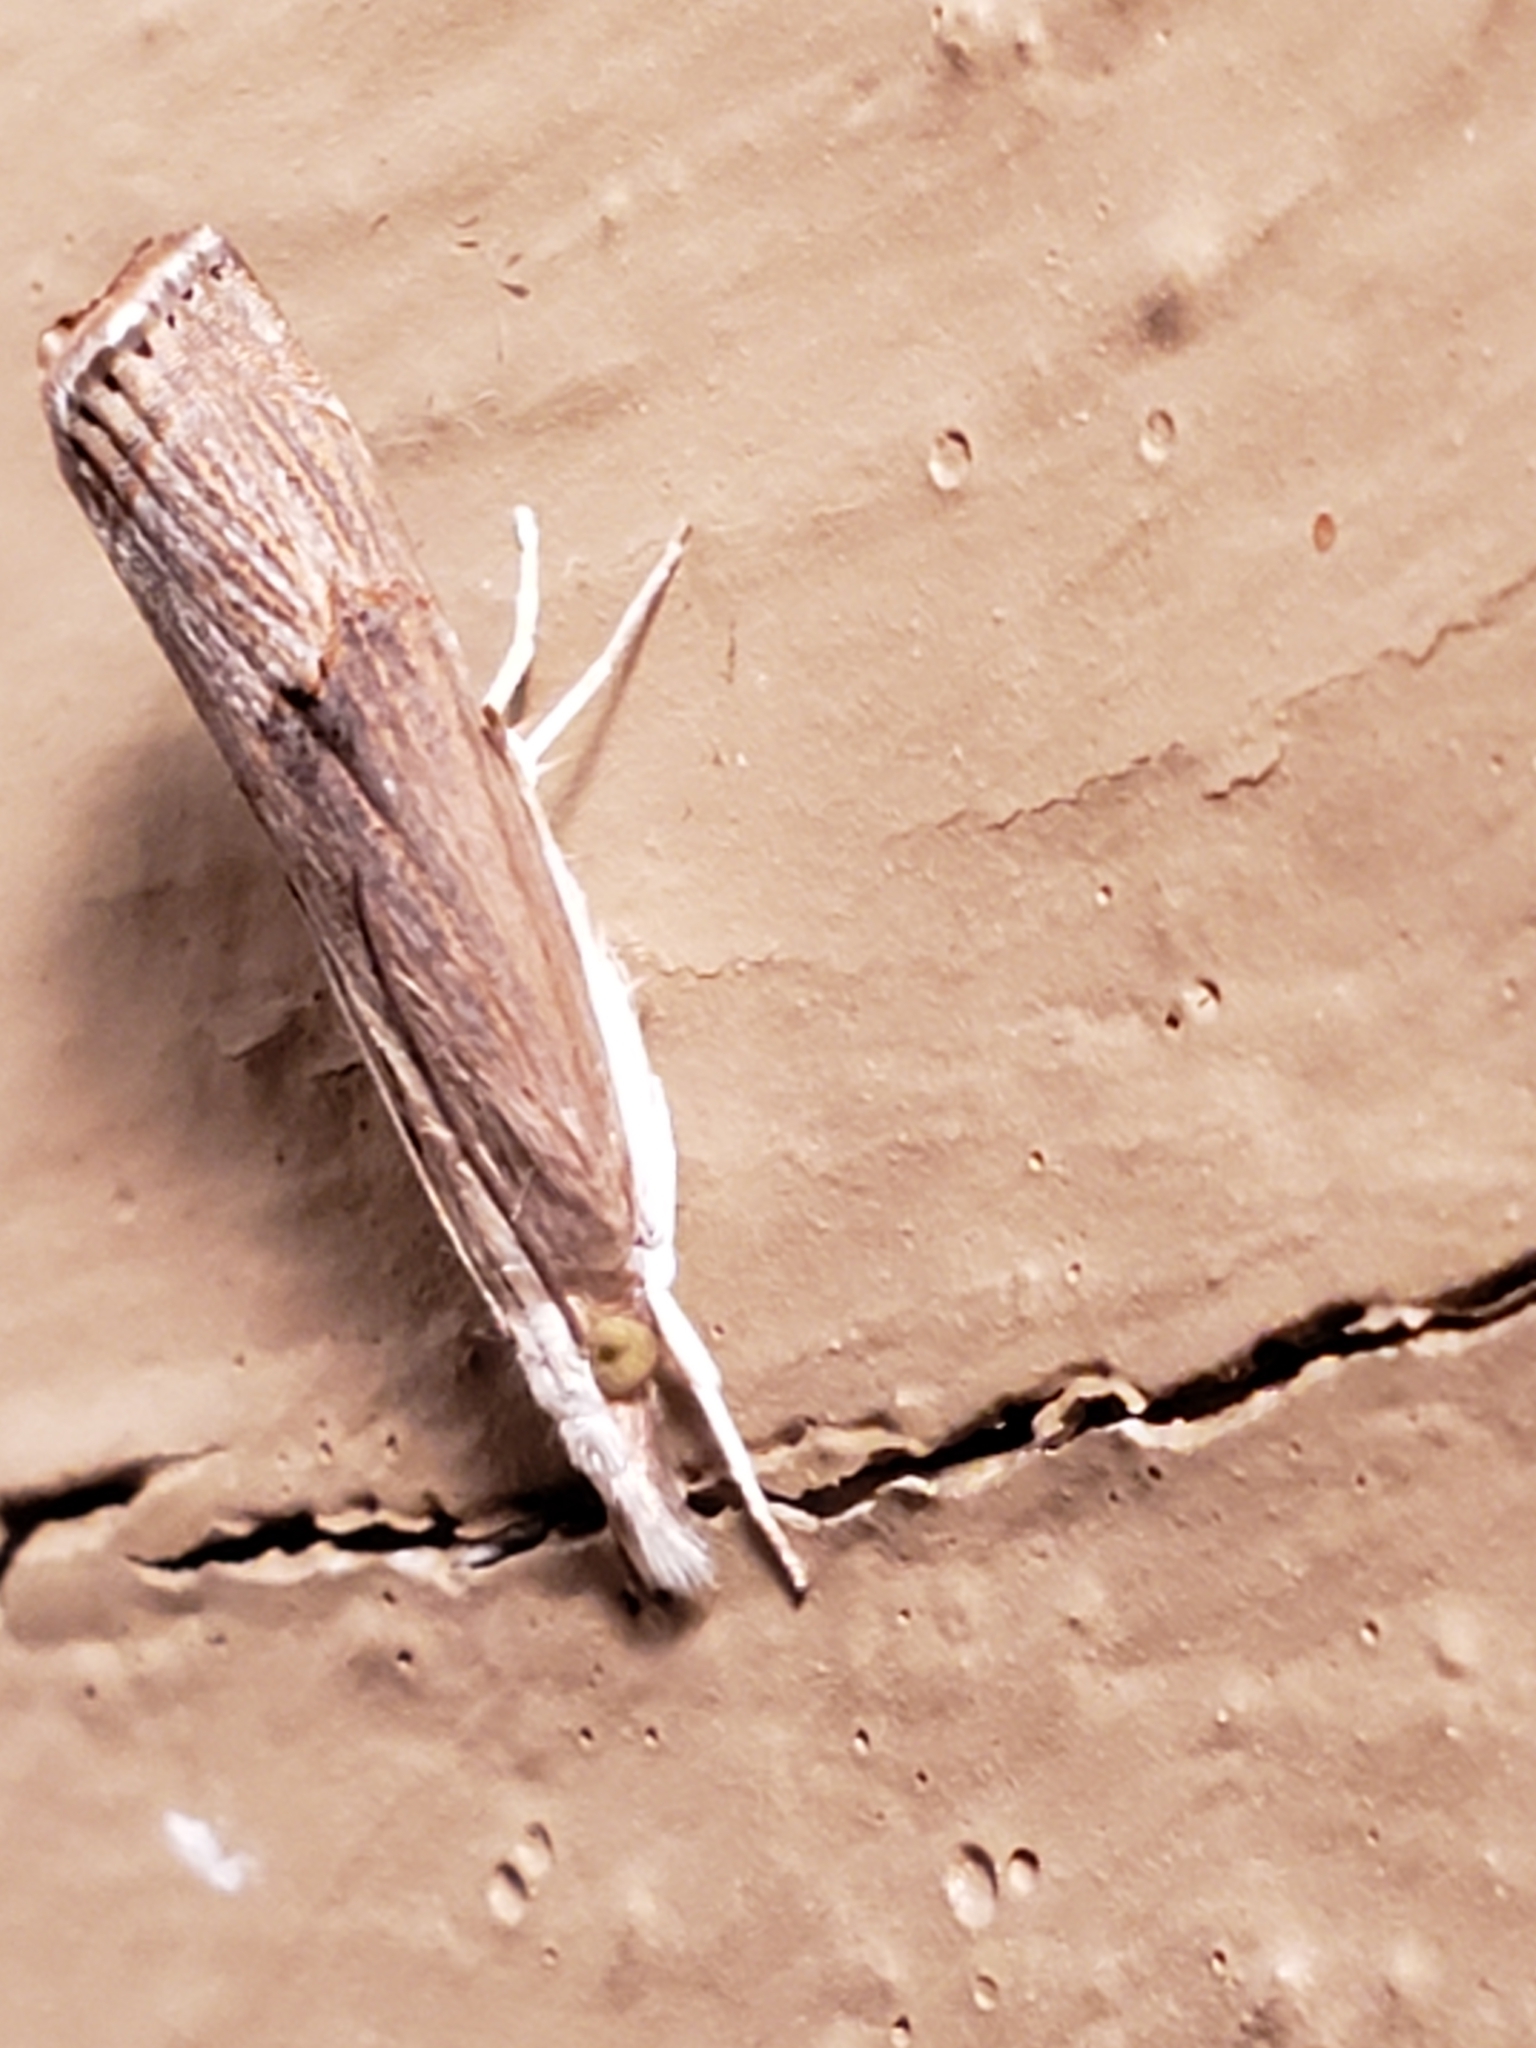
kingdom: Animalia
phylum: Arthropoda
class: Insecta
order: Lepidoptera
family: Crambidae
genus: Parapediasia
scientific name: Parapediasia teterellus
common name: Bluegrass webworm moth
